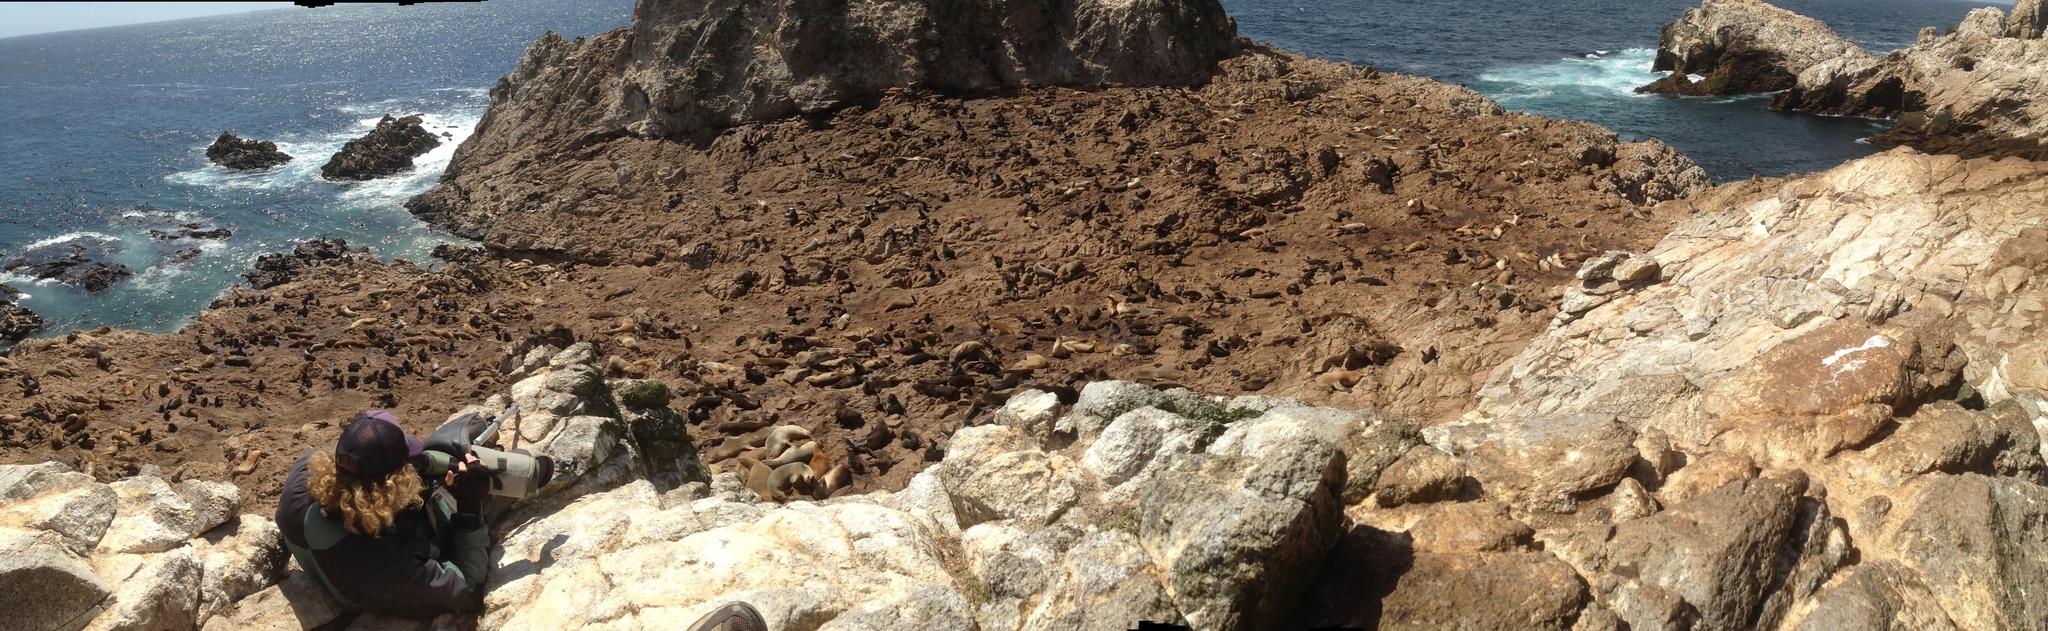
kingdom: Animalia
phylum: Chordata
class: Mammalia
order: Carnivora
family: Otariidae
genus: Callorhinus
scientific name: Callorhinus ursinus
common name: Northern fur seal
